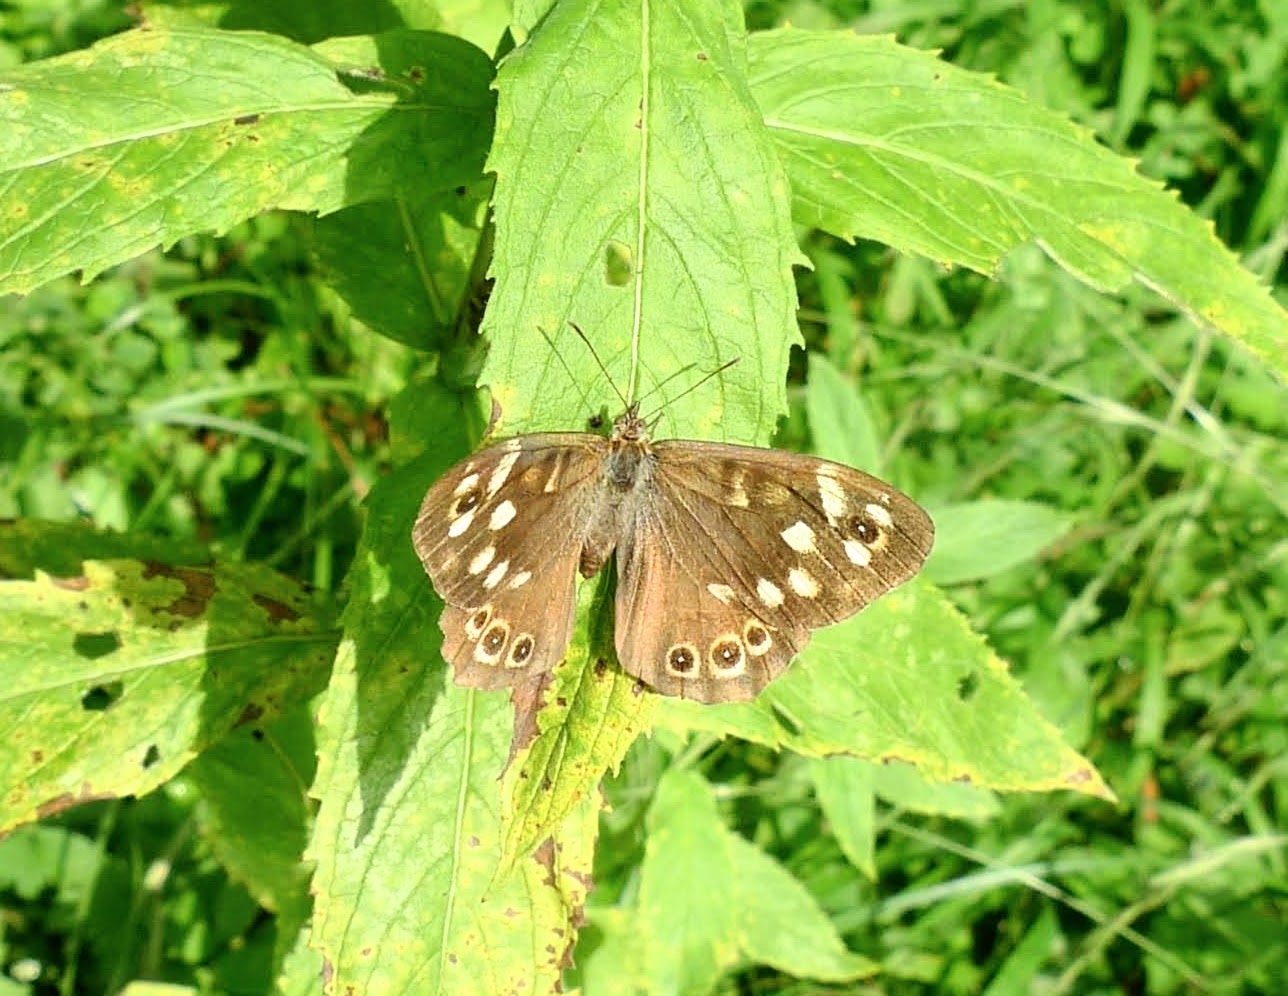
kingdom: Animalia
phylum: Arthropoda
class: Insecta
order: Lepidoptera
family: Nymphalidae
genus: Pararge
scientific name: Pararge aegeria
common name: Speckled wood
